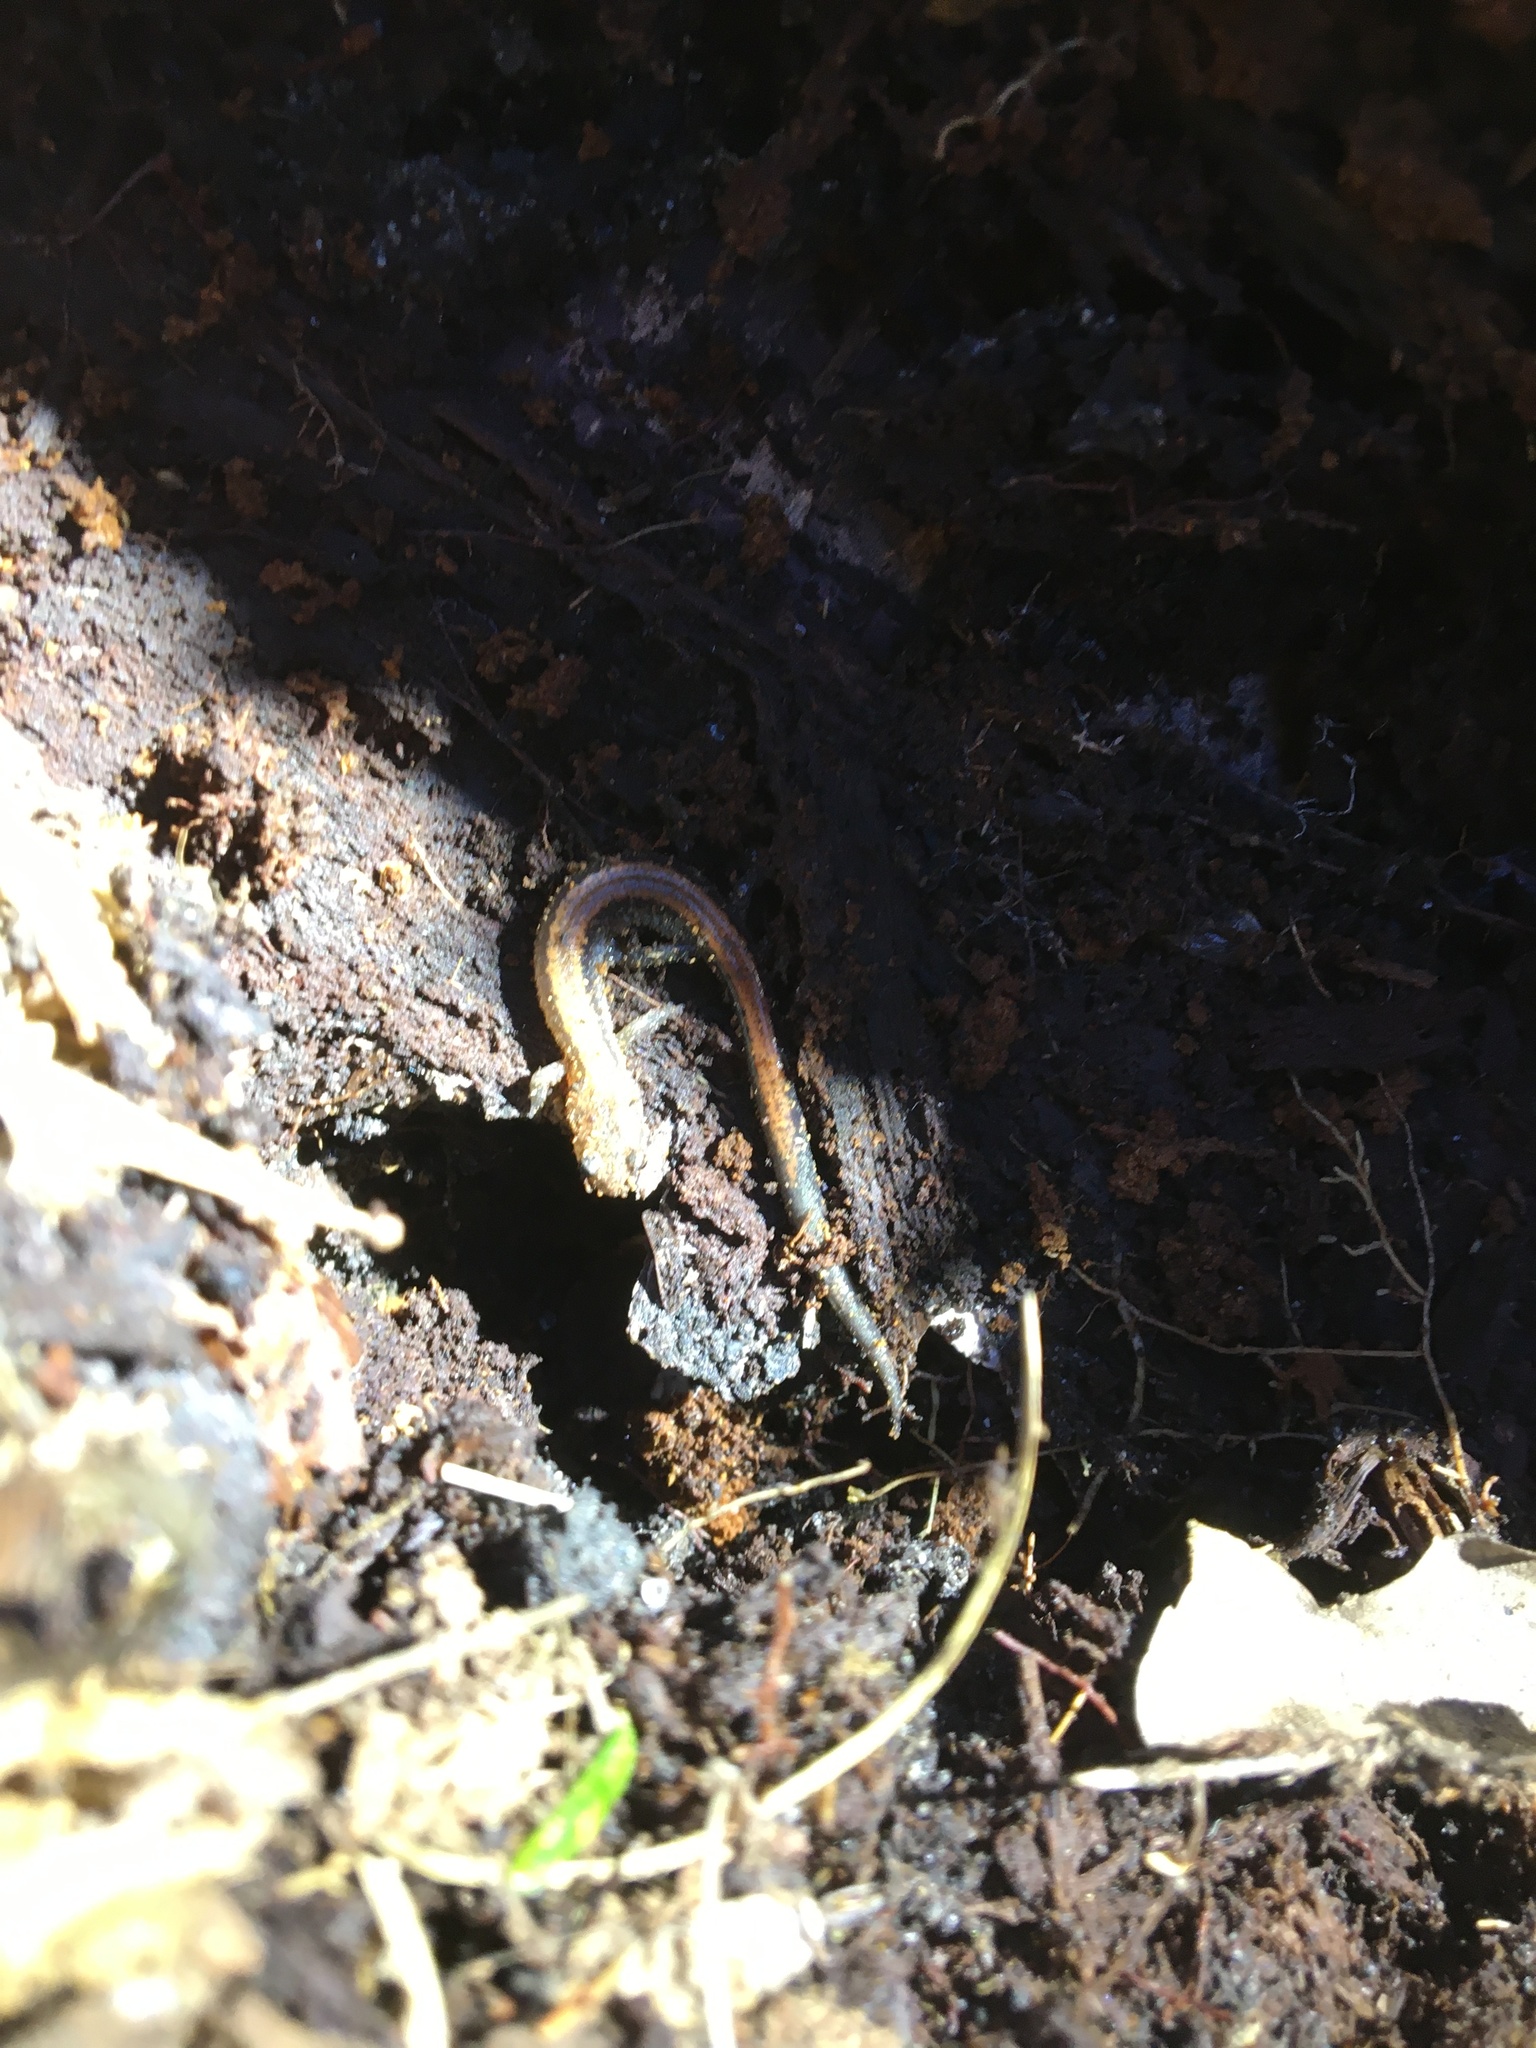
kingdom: Animalia
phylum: Chordata
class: Amphibia
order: Caudata
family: Plethodontidae
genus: Plethodon
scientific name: Plethodon cinereus
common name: Redback salamander
